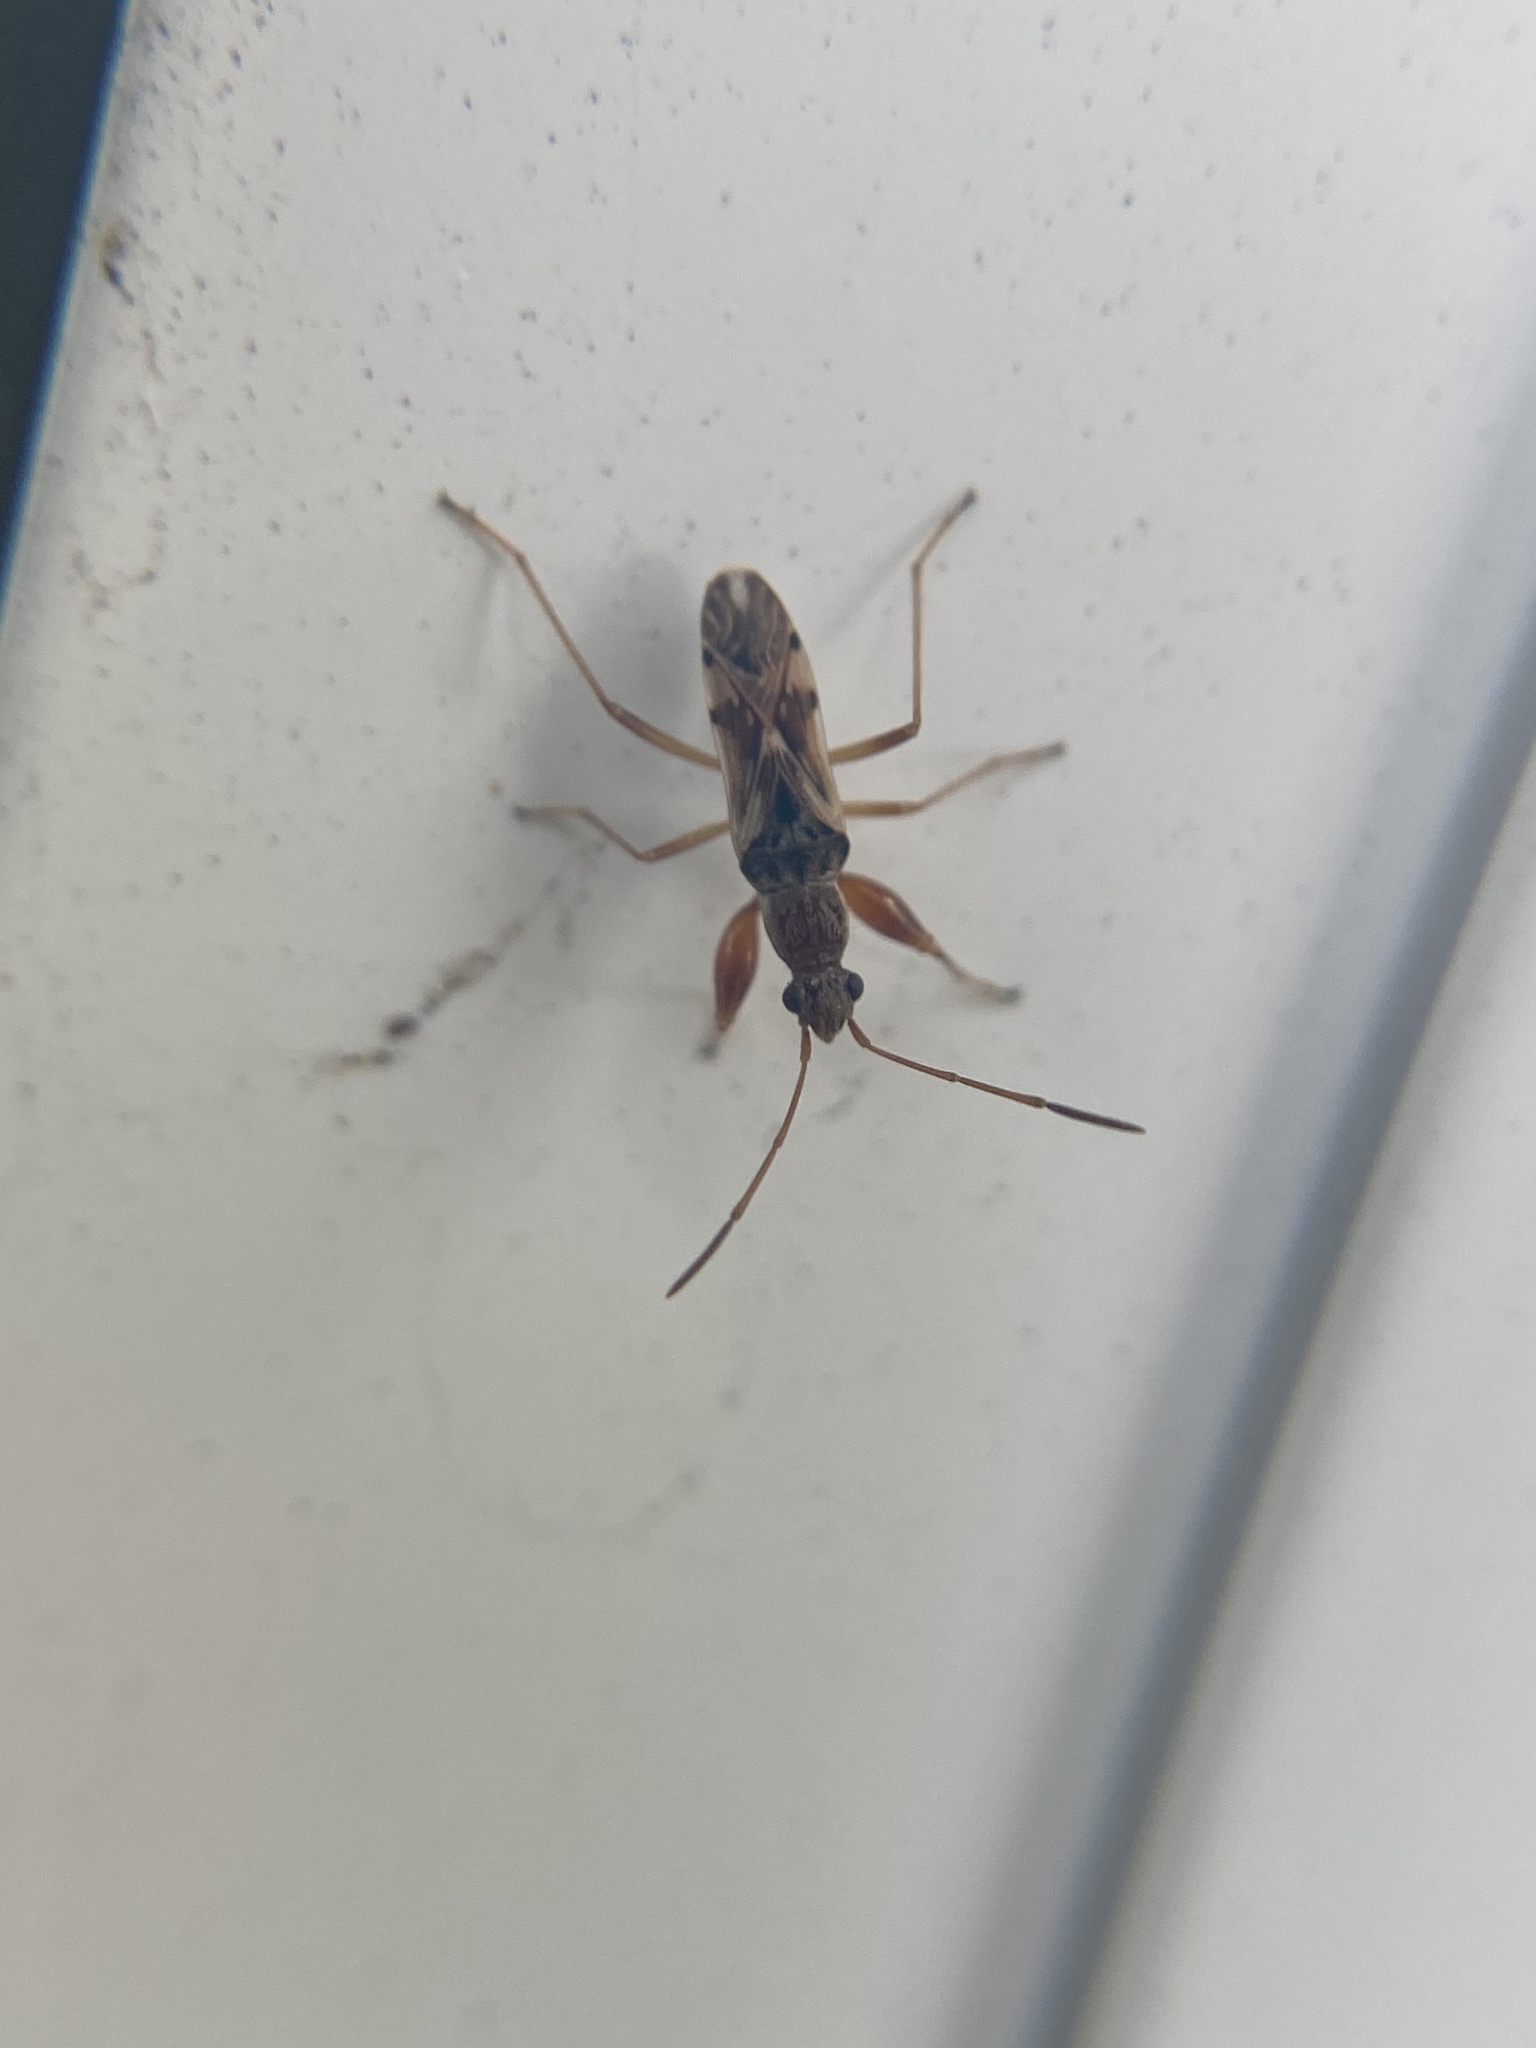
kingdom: Animalia
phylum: Arthropoda
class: Insecta
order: Hemiptera
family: Rhyparochromidae
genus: Neopamera
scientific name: Neopamera bilobata
